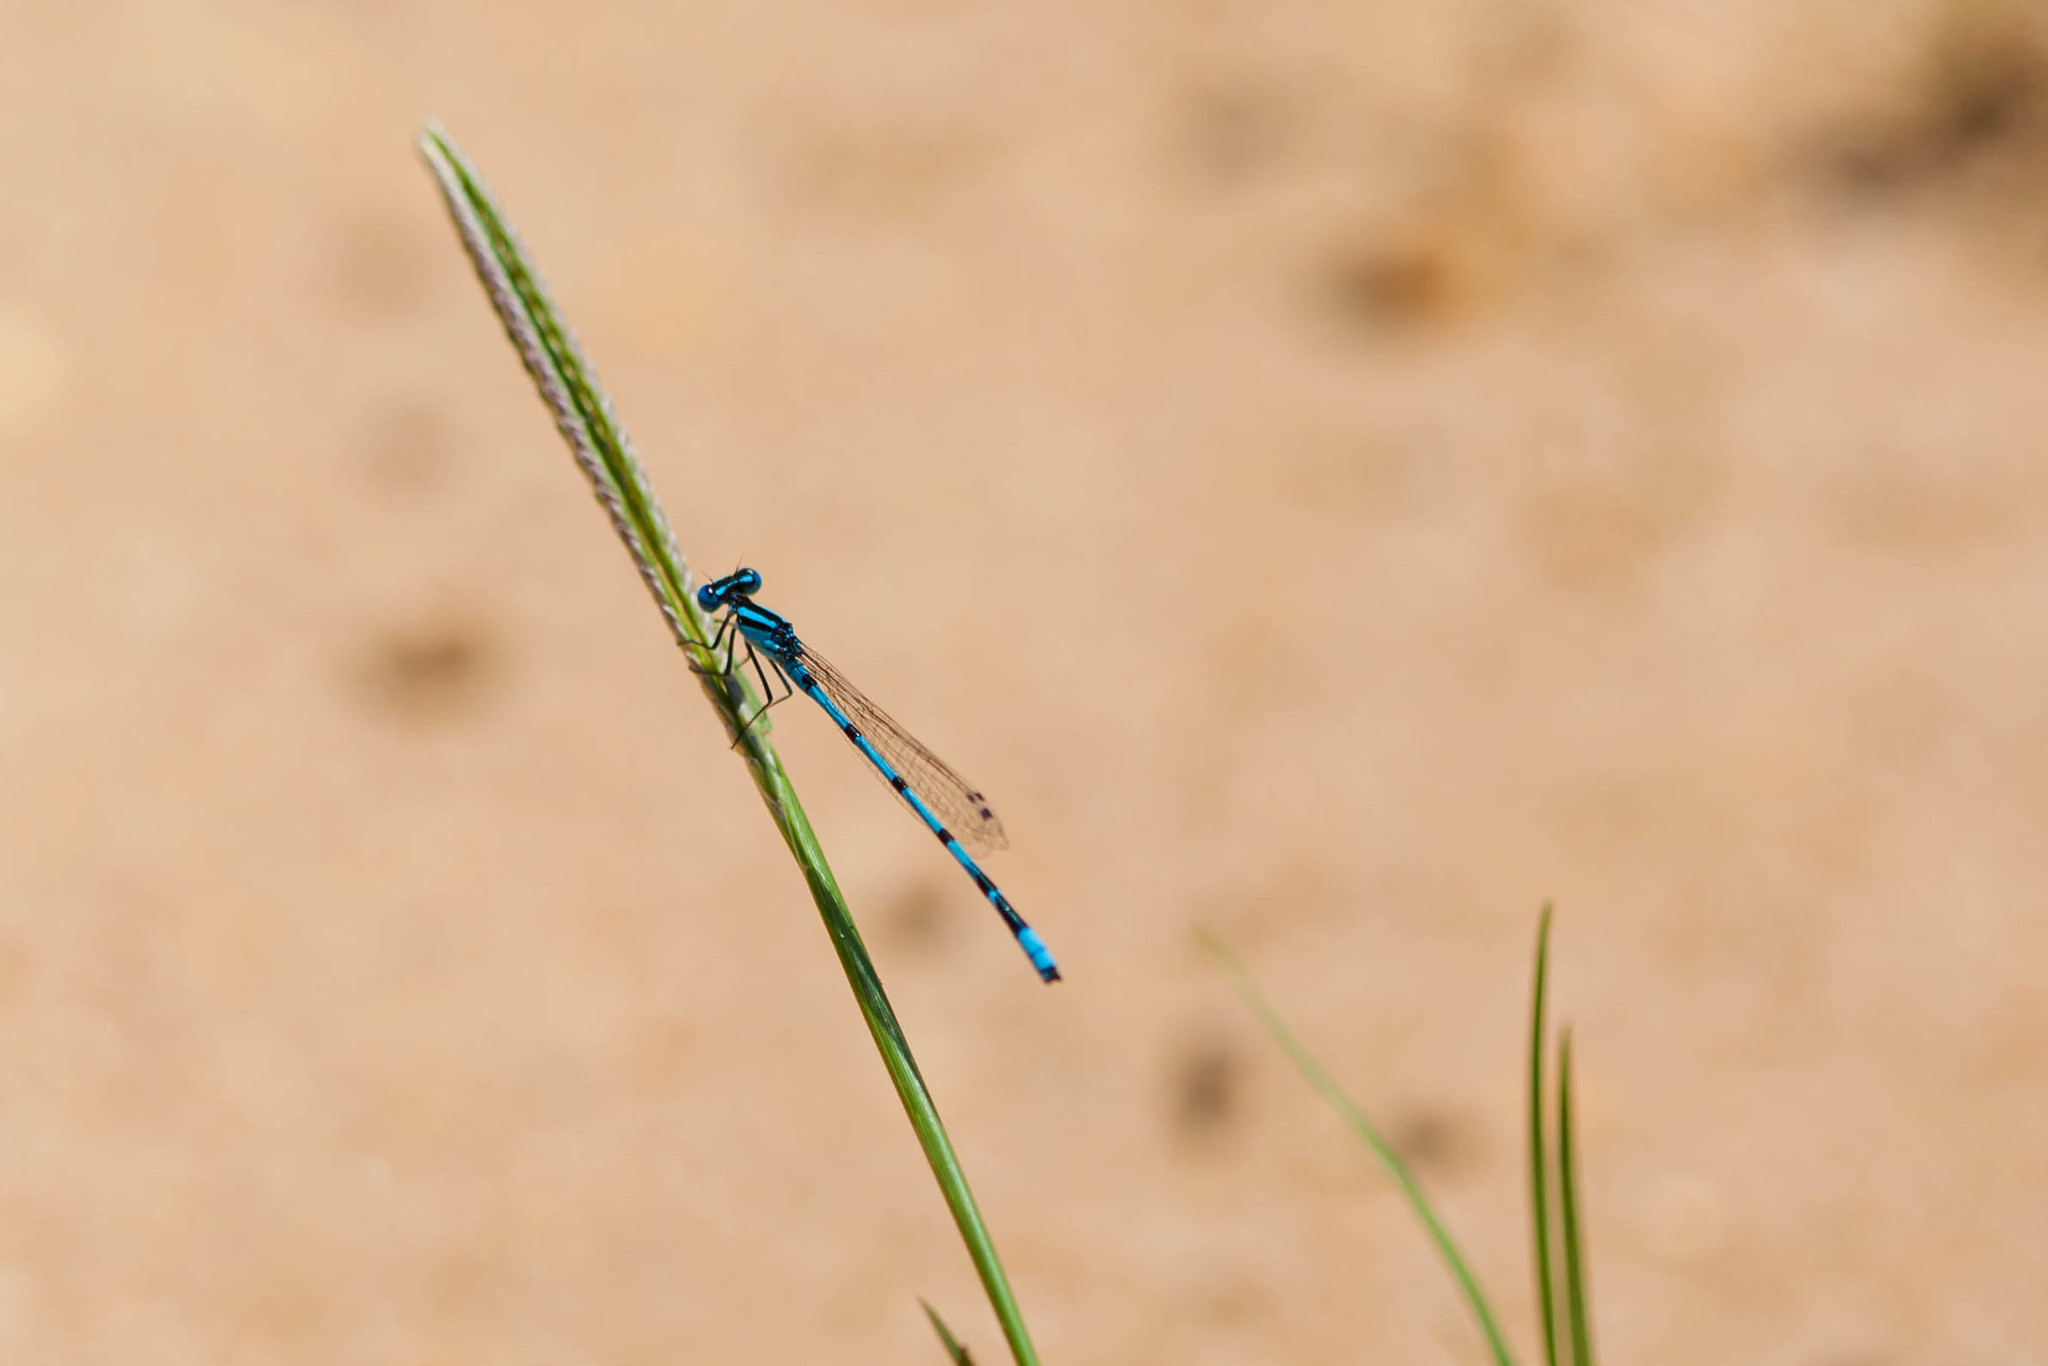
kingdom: Animalia
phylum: Arthropoda
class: Insecta
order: Odonata
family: Coenagrionidae
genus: Enallagma
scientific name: Enallagma doubledayi
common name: Atlantic bluet
